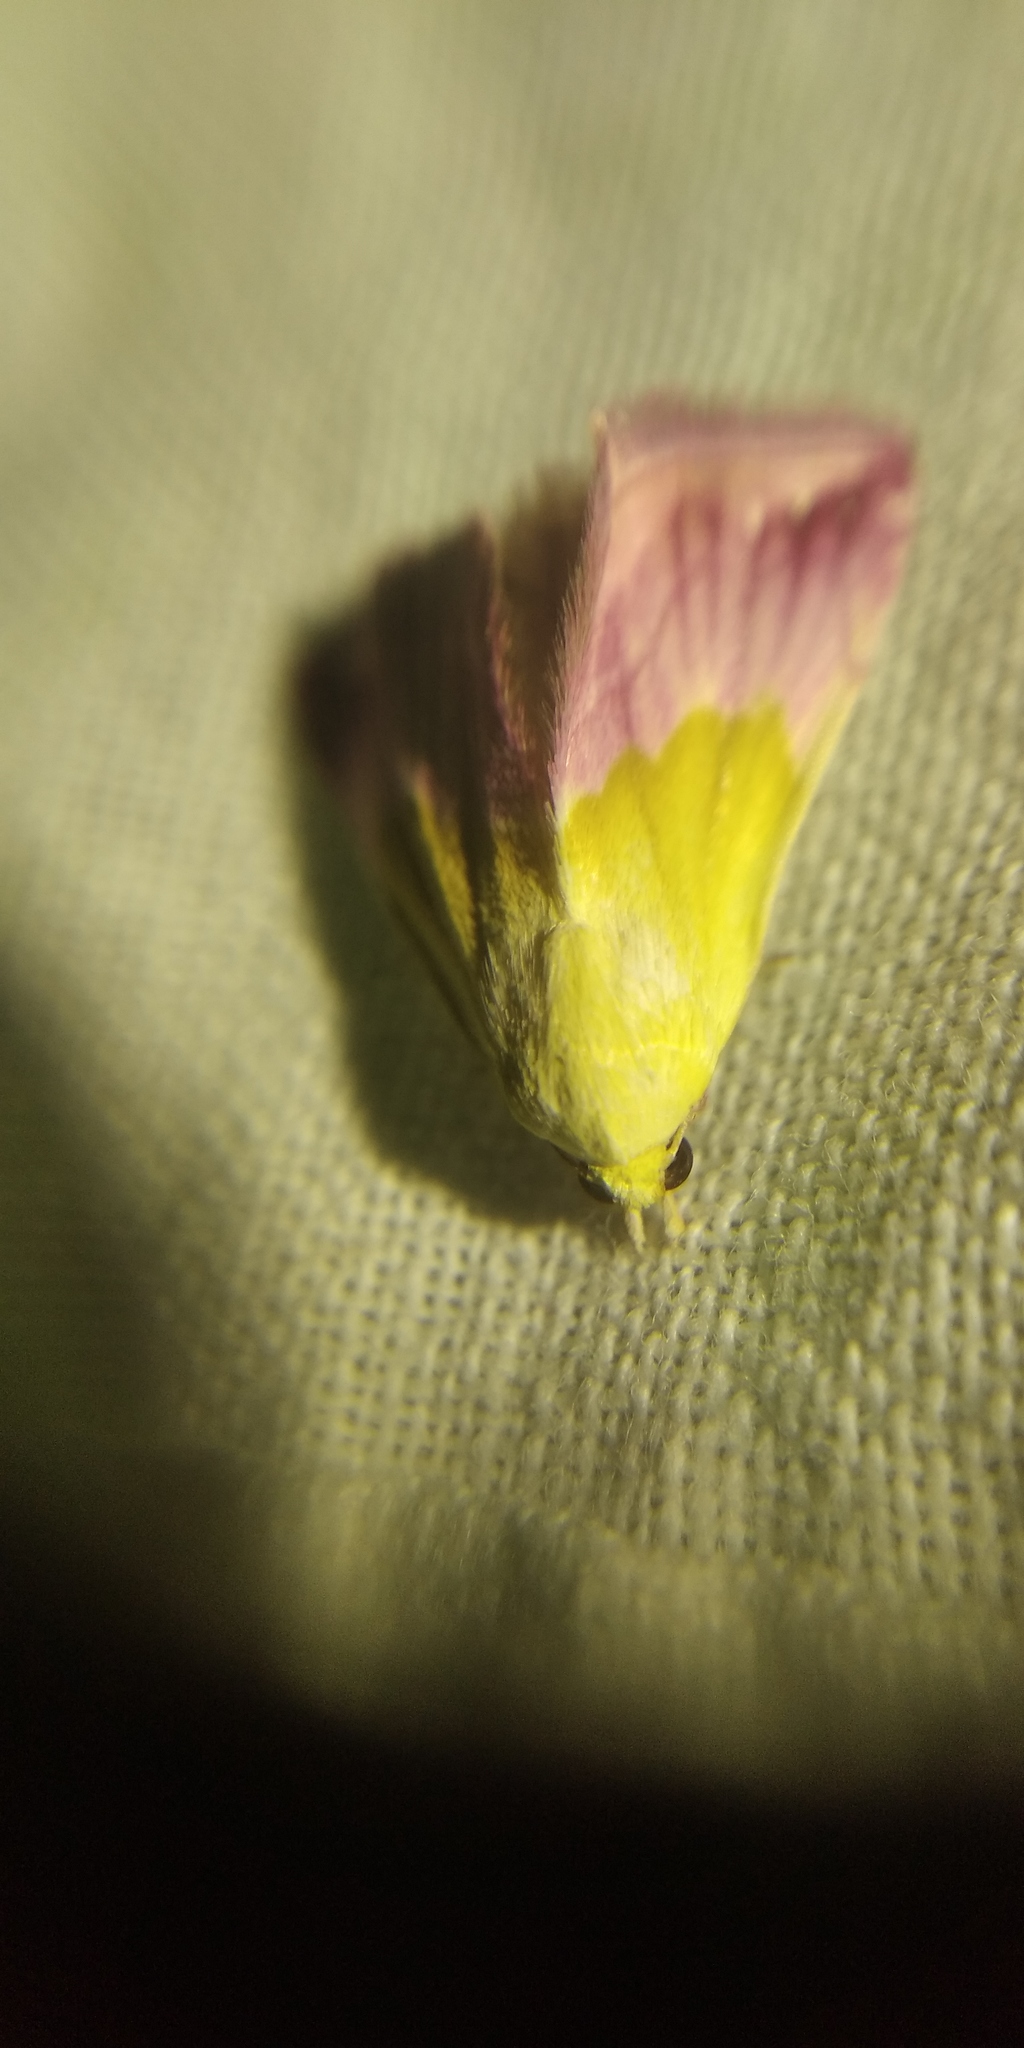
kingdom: Animalia
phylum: Arthropoda
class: Insecta
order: Lepidoptera
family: Noctuidae
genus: Eublemma
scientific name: Eublemma purpurina
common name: Beautiful marbled
